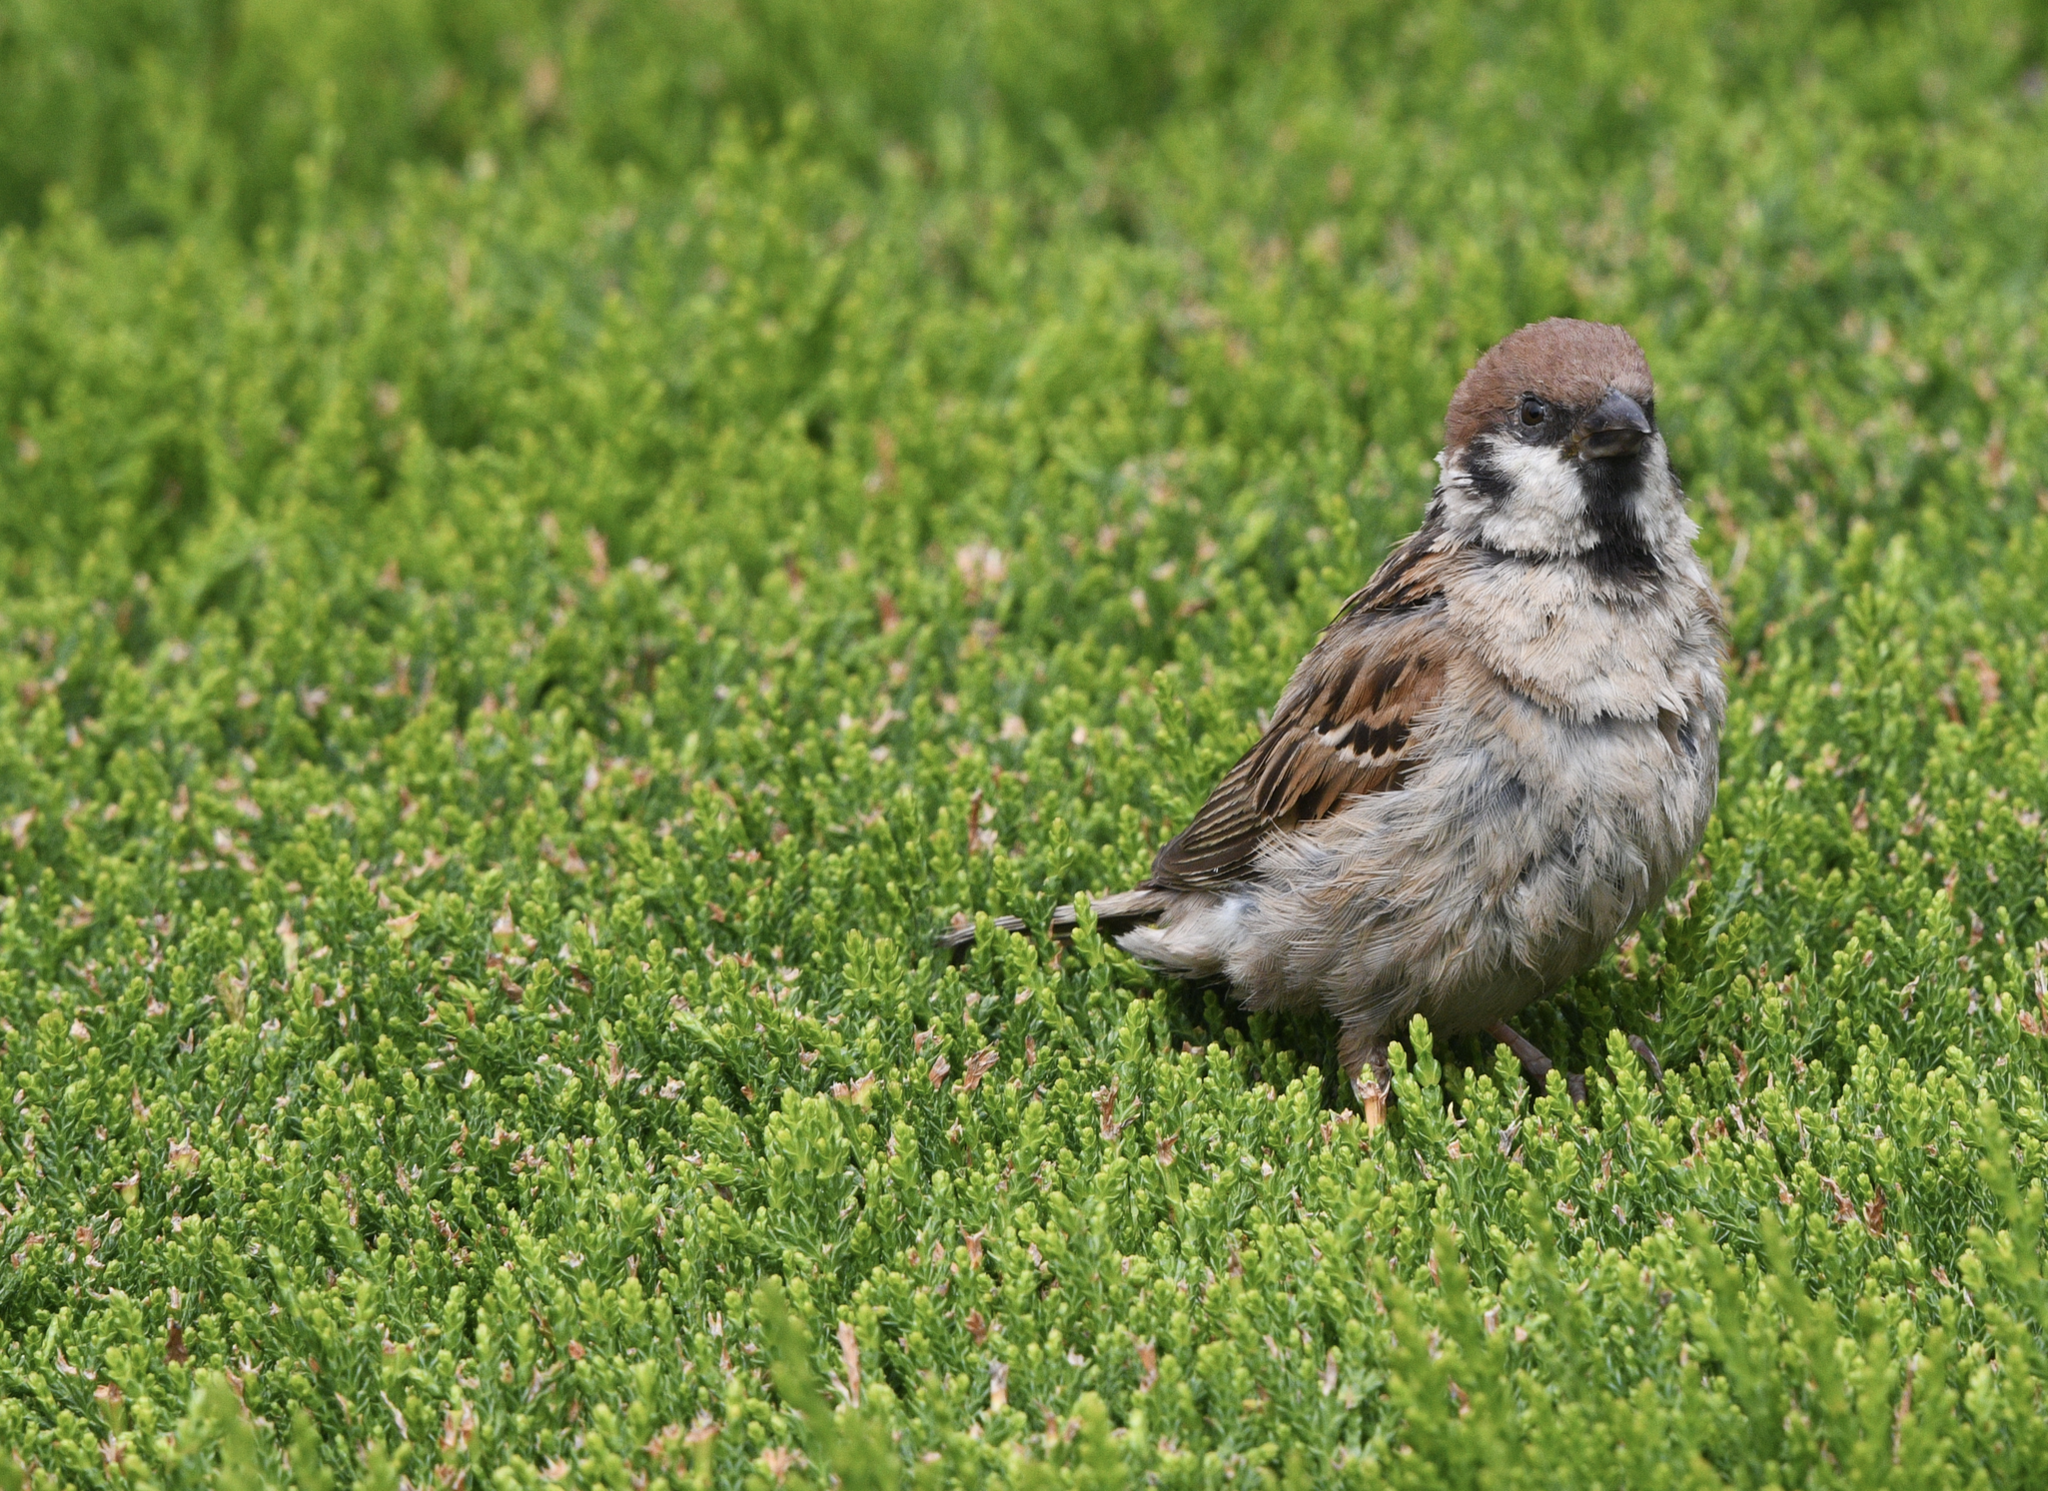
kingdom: Animalia
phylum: Chordata
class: Aves
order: Passeriformes
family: Passeridae
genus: Passer
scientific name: Passer montanus
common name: Eurasian tree sparrow
